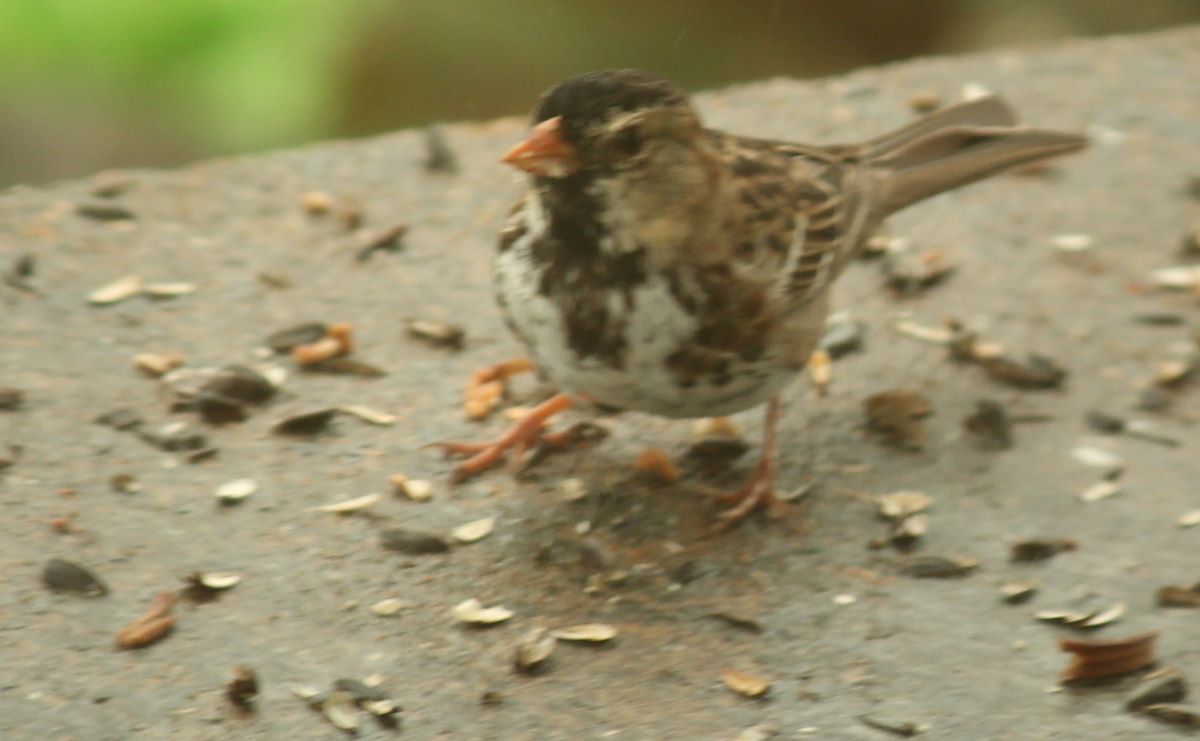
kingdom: Animalia
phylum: Chordata
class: Aves
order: Passeriformes
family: Passerellidae
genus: Zonotrichia
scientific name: Zonotrichia querula
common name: Harris's sparrow
